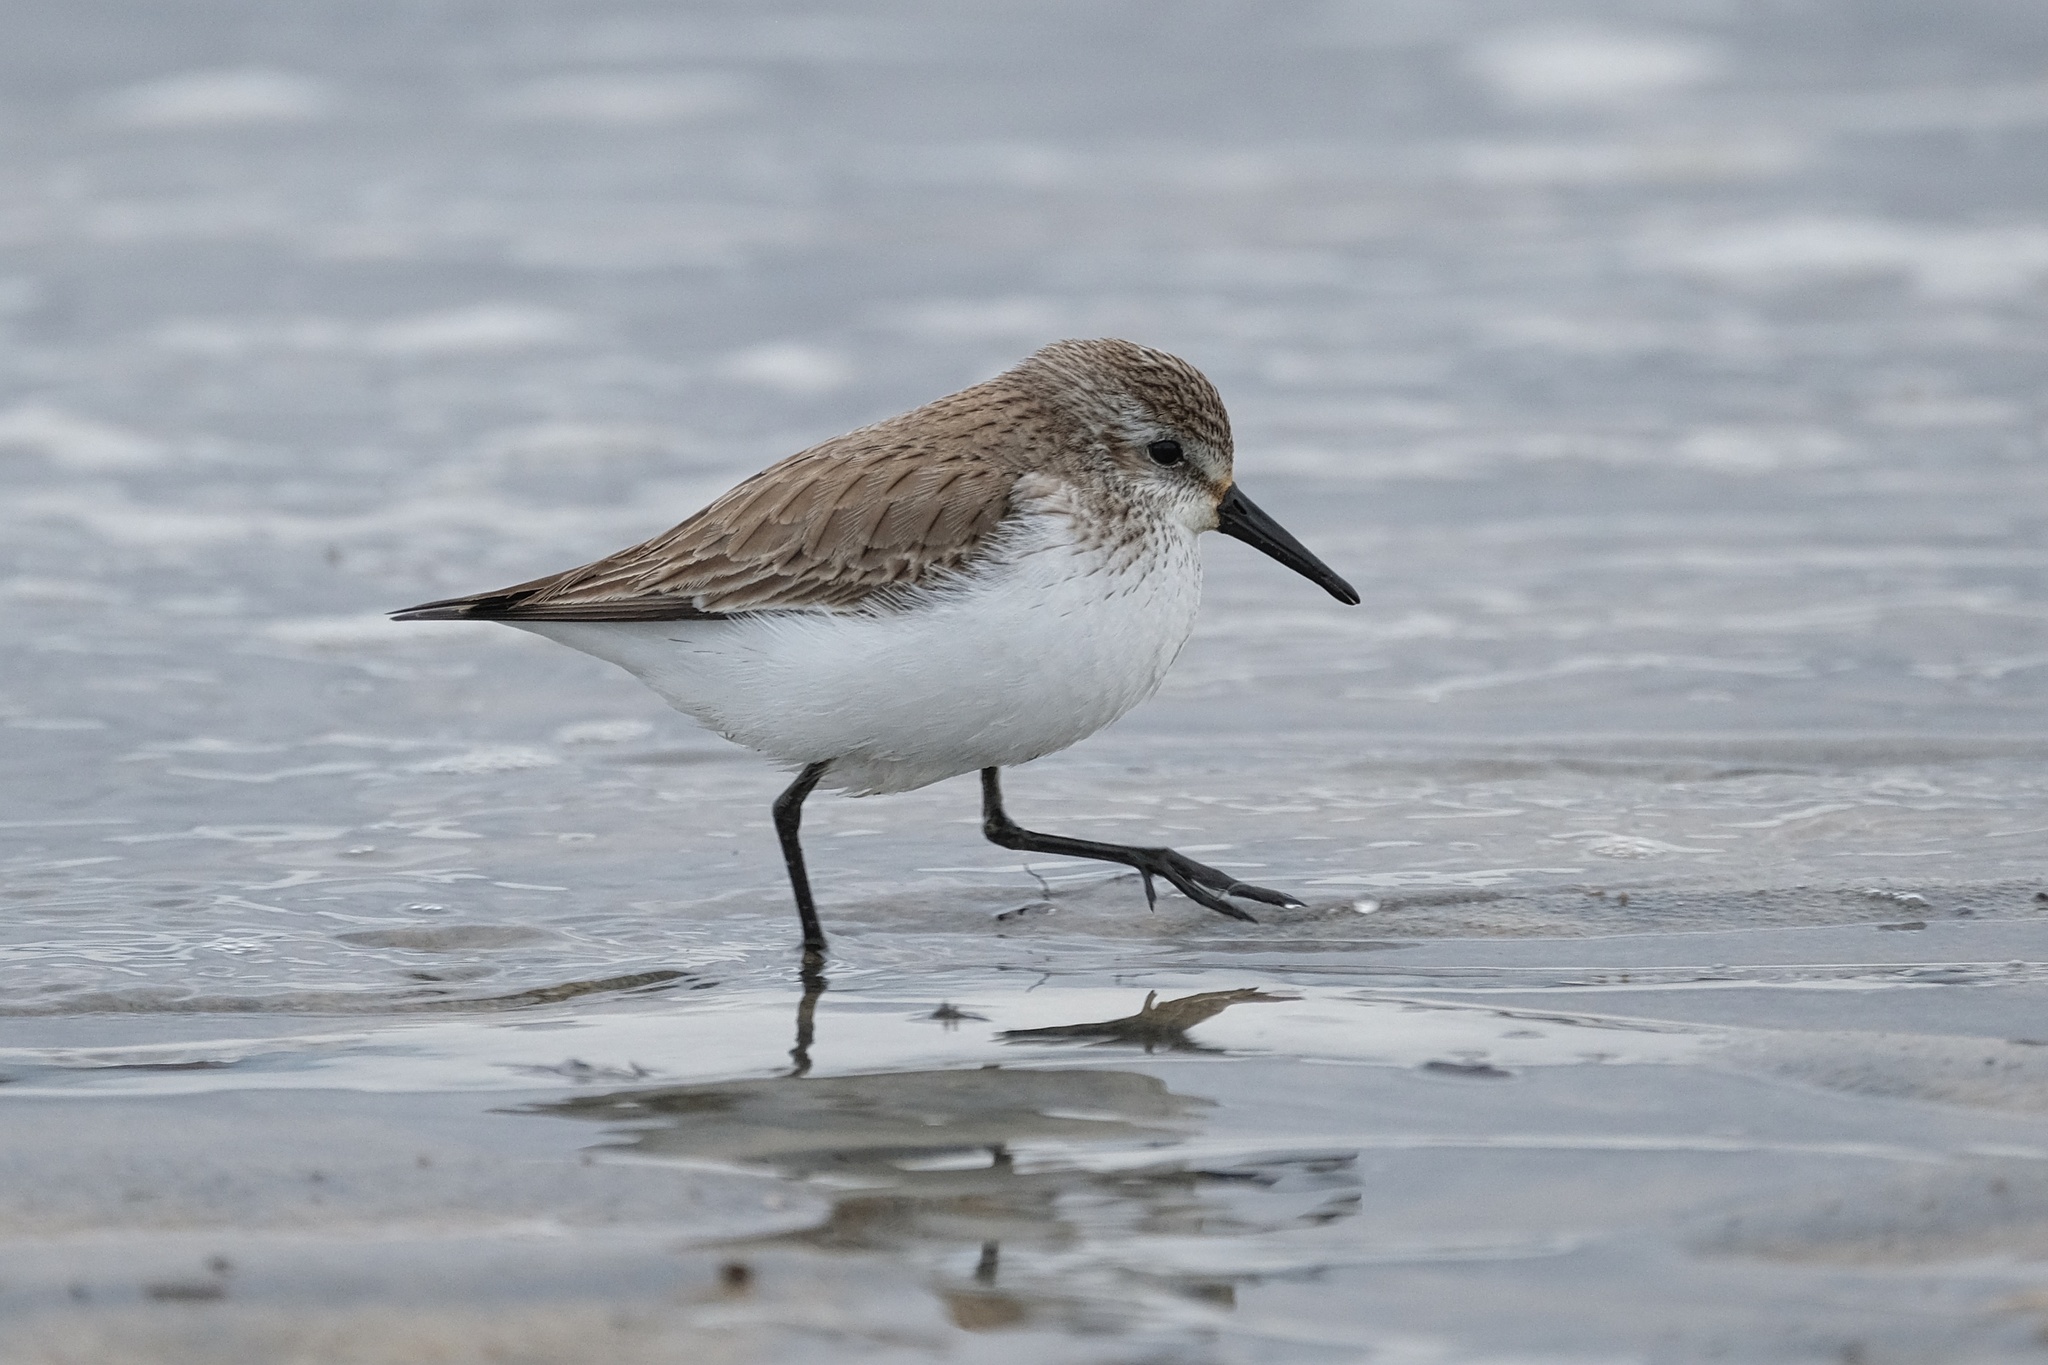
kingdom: Animalia
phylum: Chordata
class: Aves
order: Charadriiformes
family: Scolopacidae
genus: Calidris
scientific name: Calidris mauri
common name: Western sandpiper
